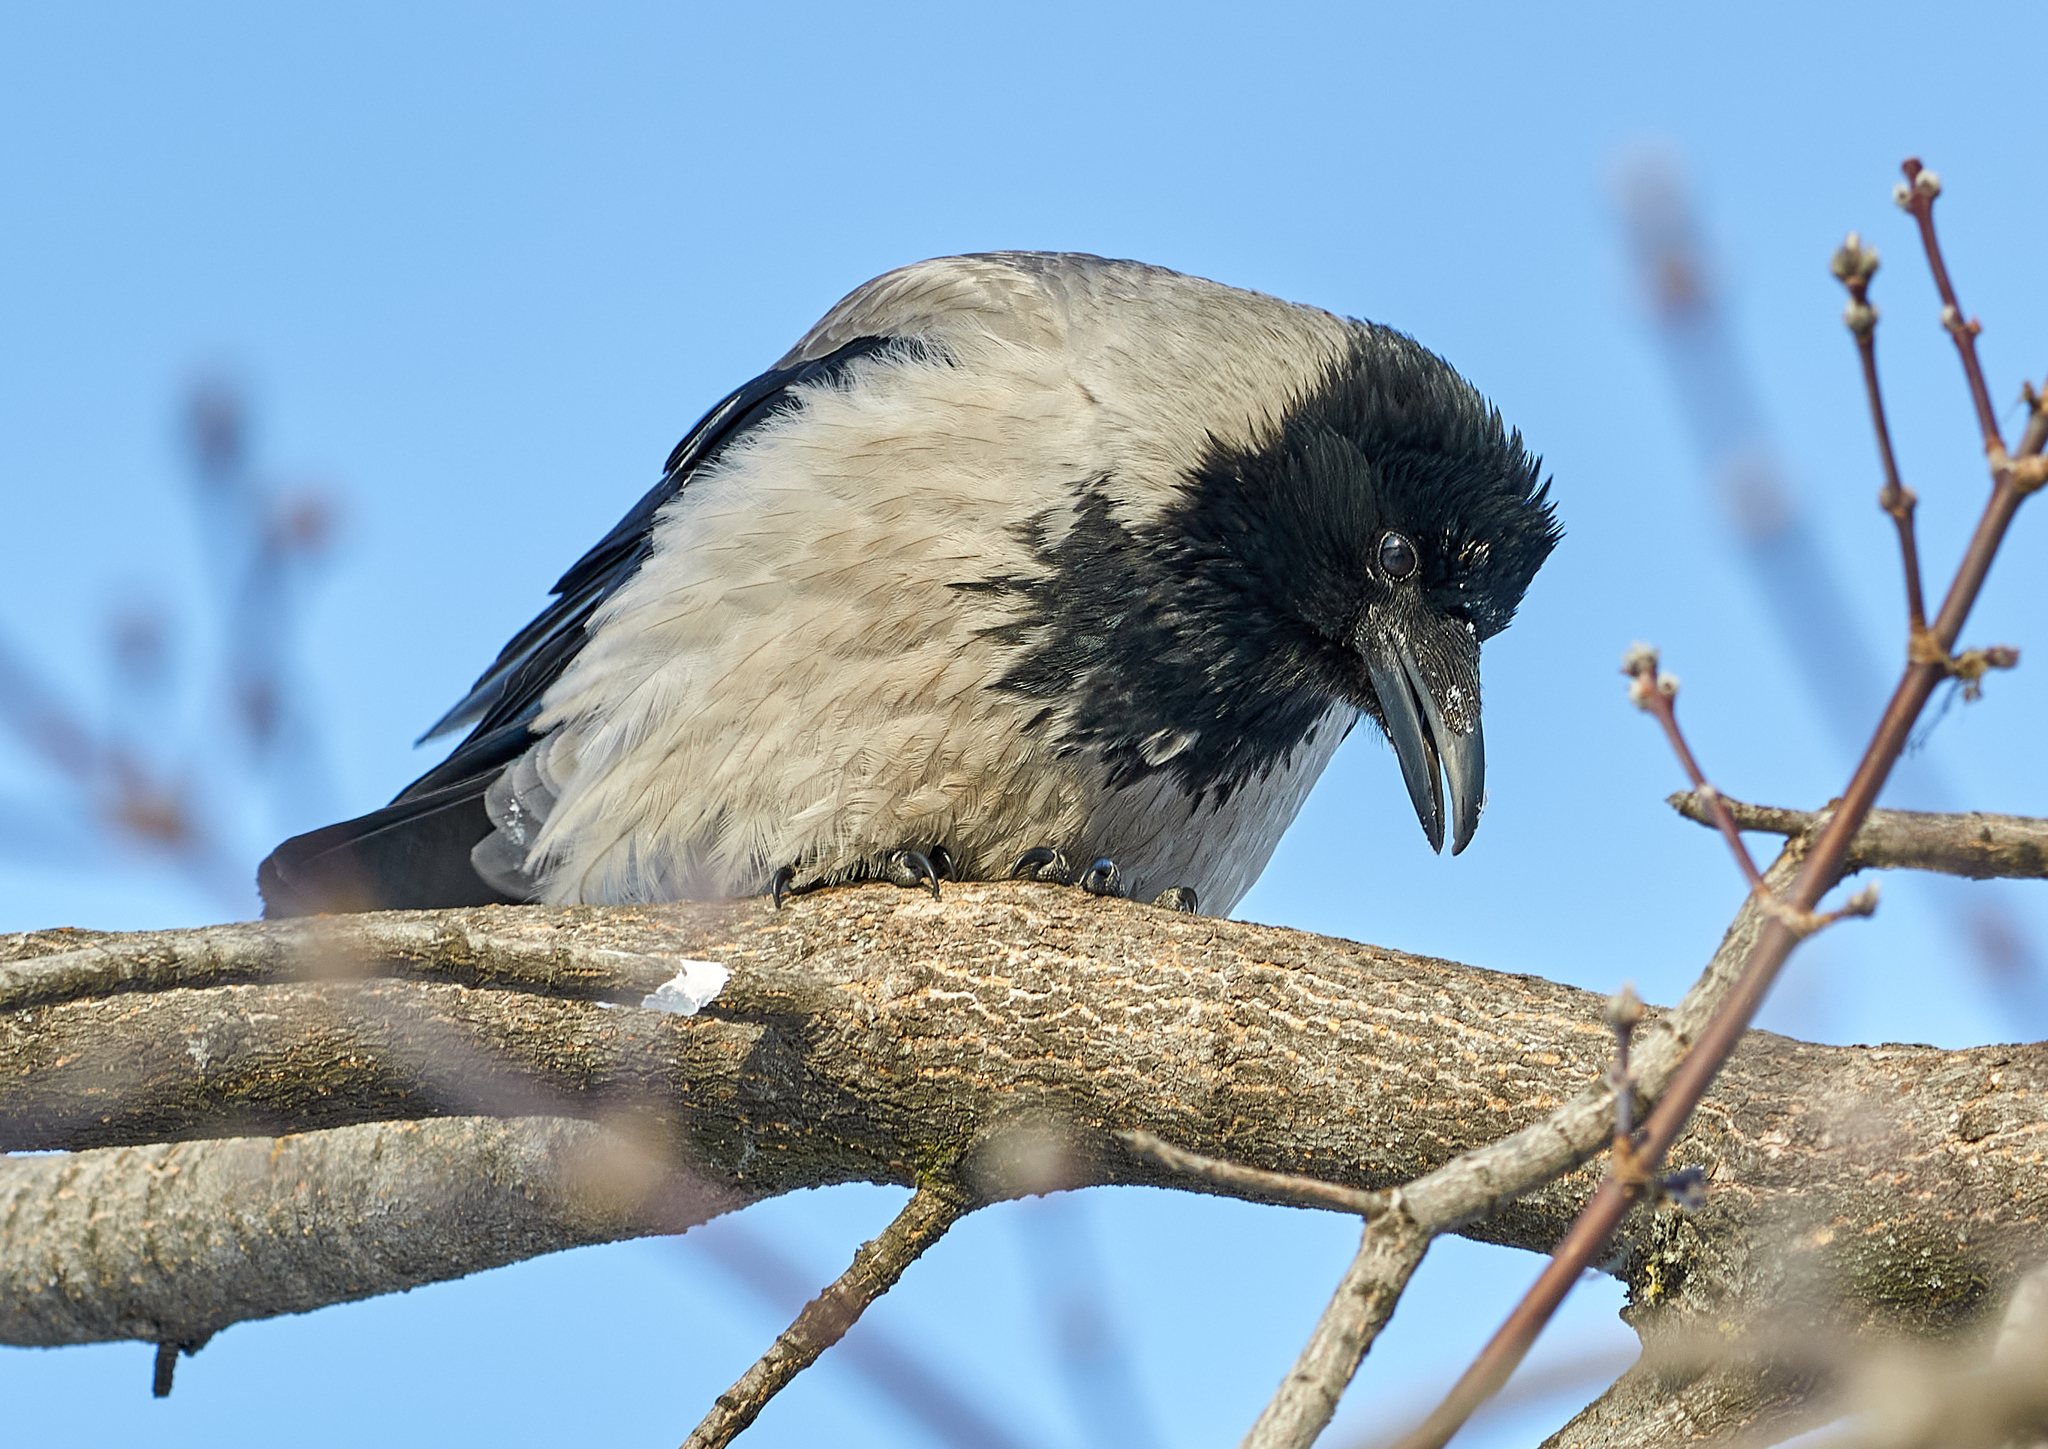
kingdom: Animalia
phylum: Chordata
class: Aves
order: Passeriformes
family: Corvidae
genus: Corvus
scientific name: Corvus cornix
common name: Hooded crow
